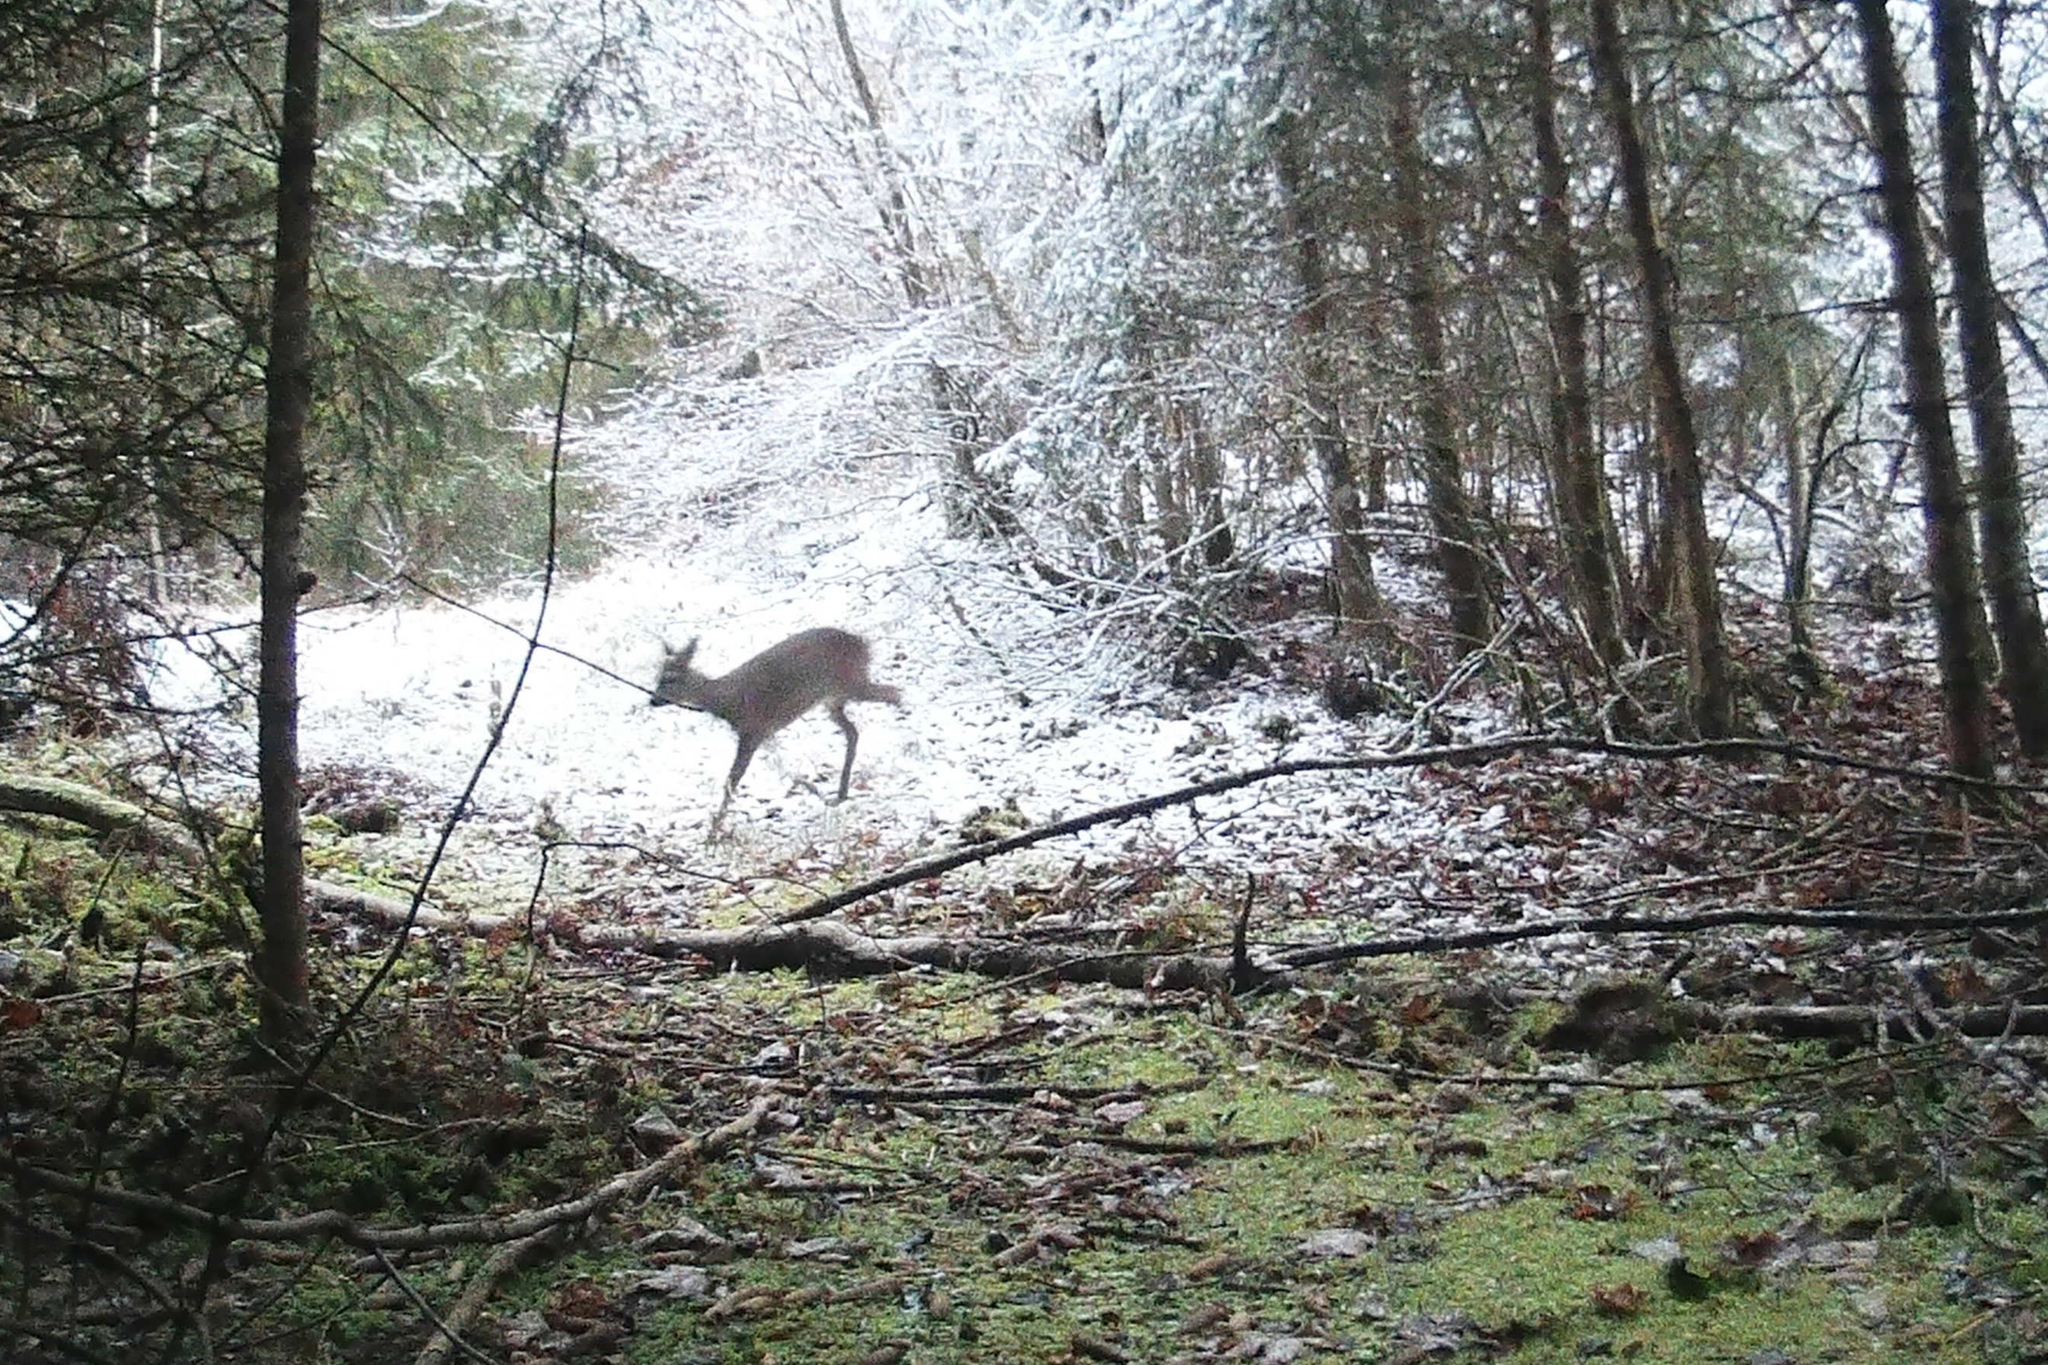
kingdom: Animalia
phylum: Chordata
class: Mammalia
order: Artiodactyla
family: Cervidae
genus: Capreolus
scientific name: Capreolus capreolus
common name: Western roe deer
